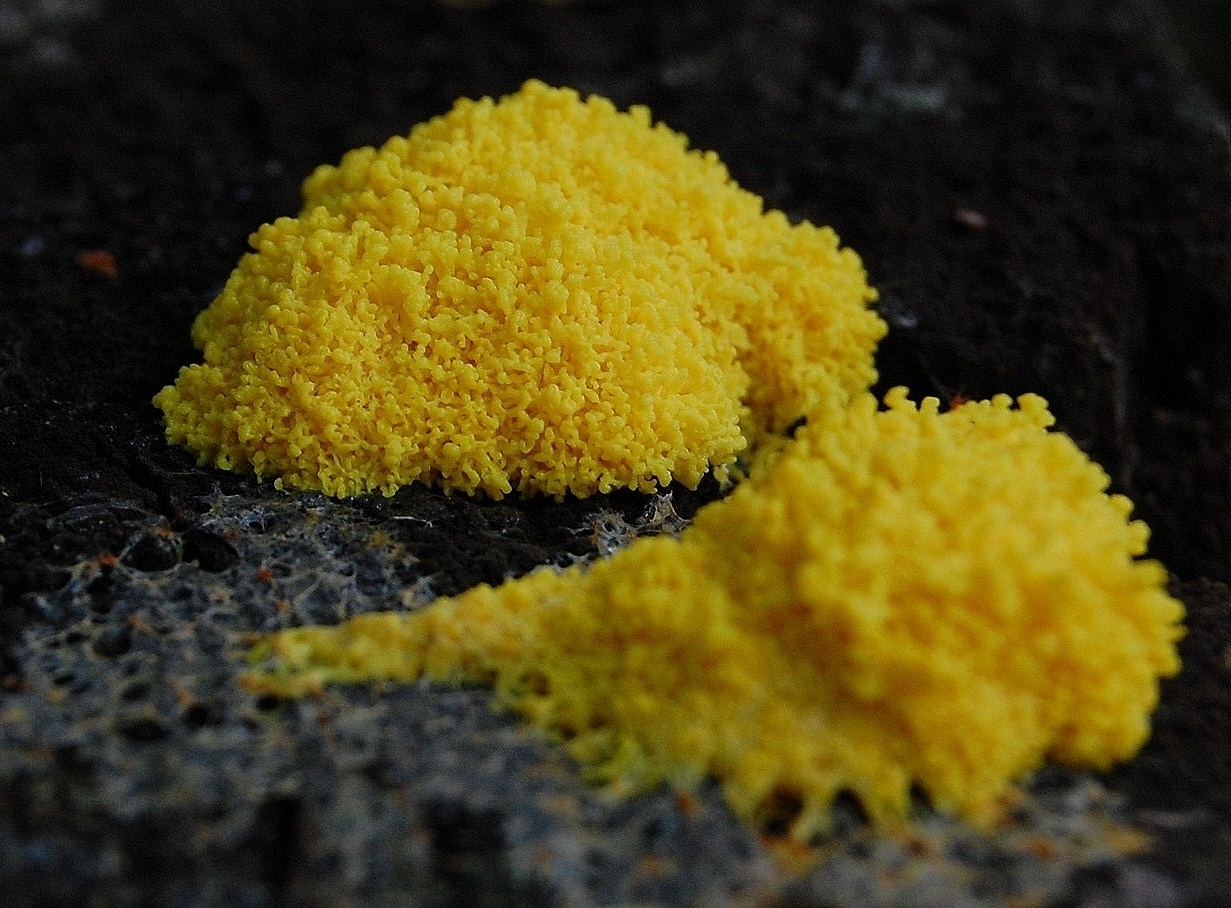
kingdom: Protozoa
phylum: Mycetozoa
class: Myxomycetes
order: Physarales
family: Physaraceae
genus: Fuligo
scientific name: Fuligo septica
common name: Dog vomit slime mold
